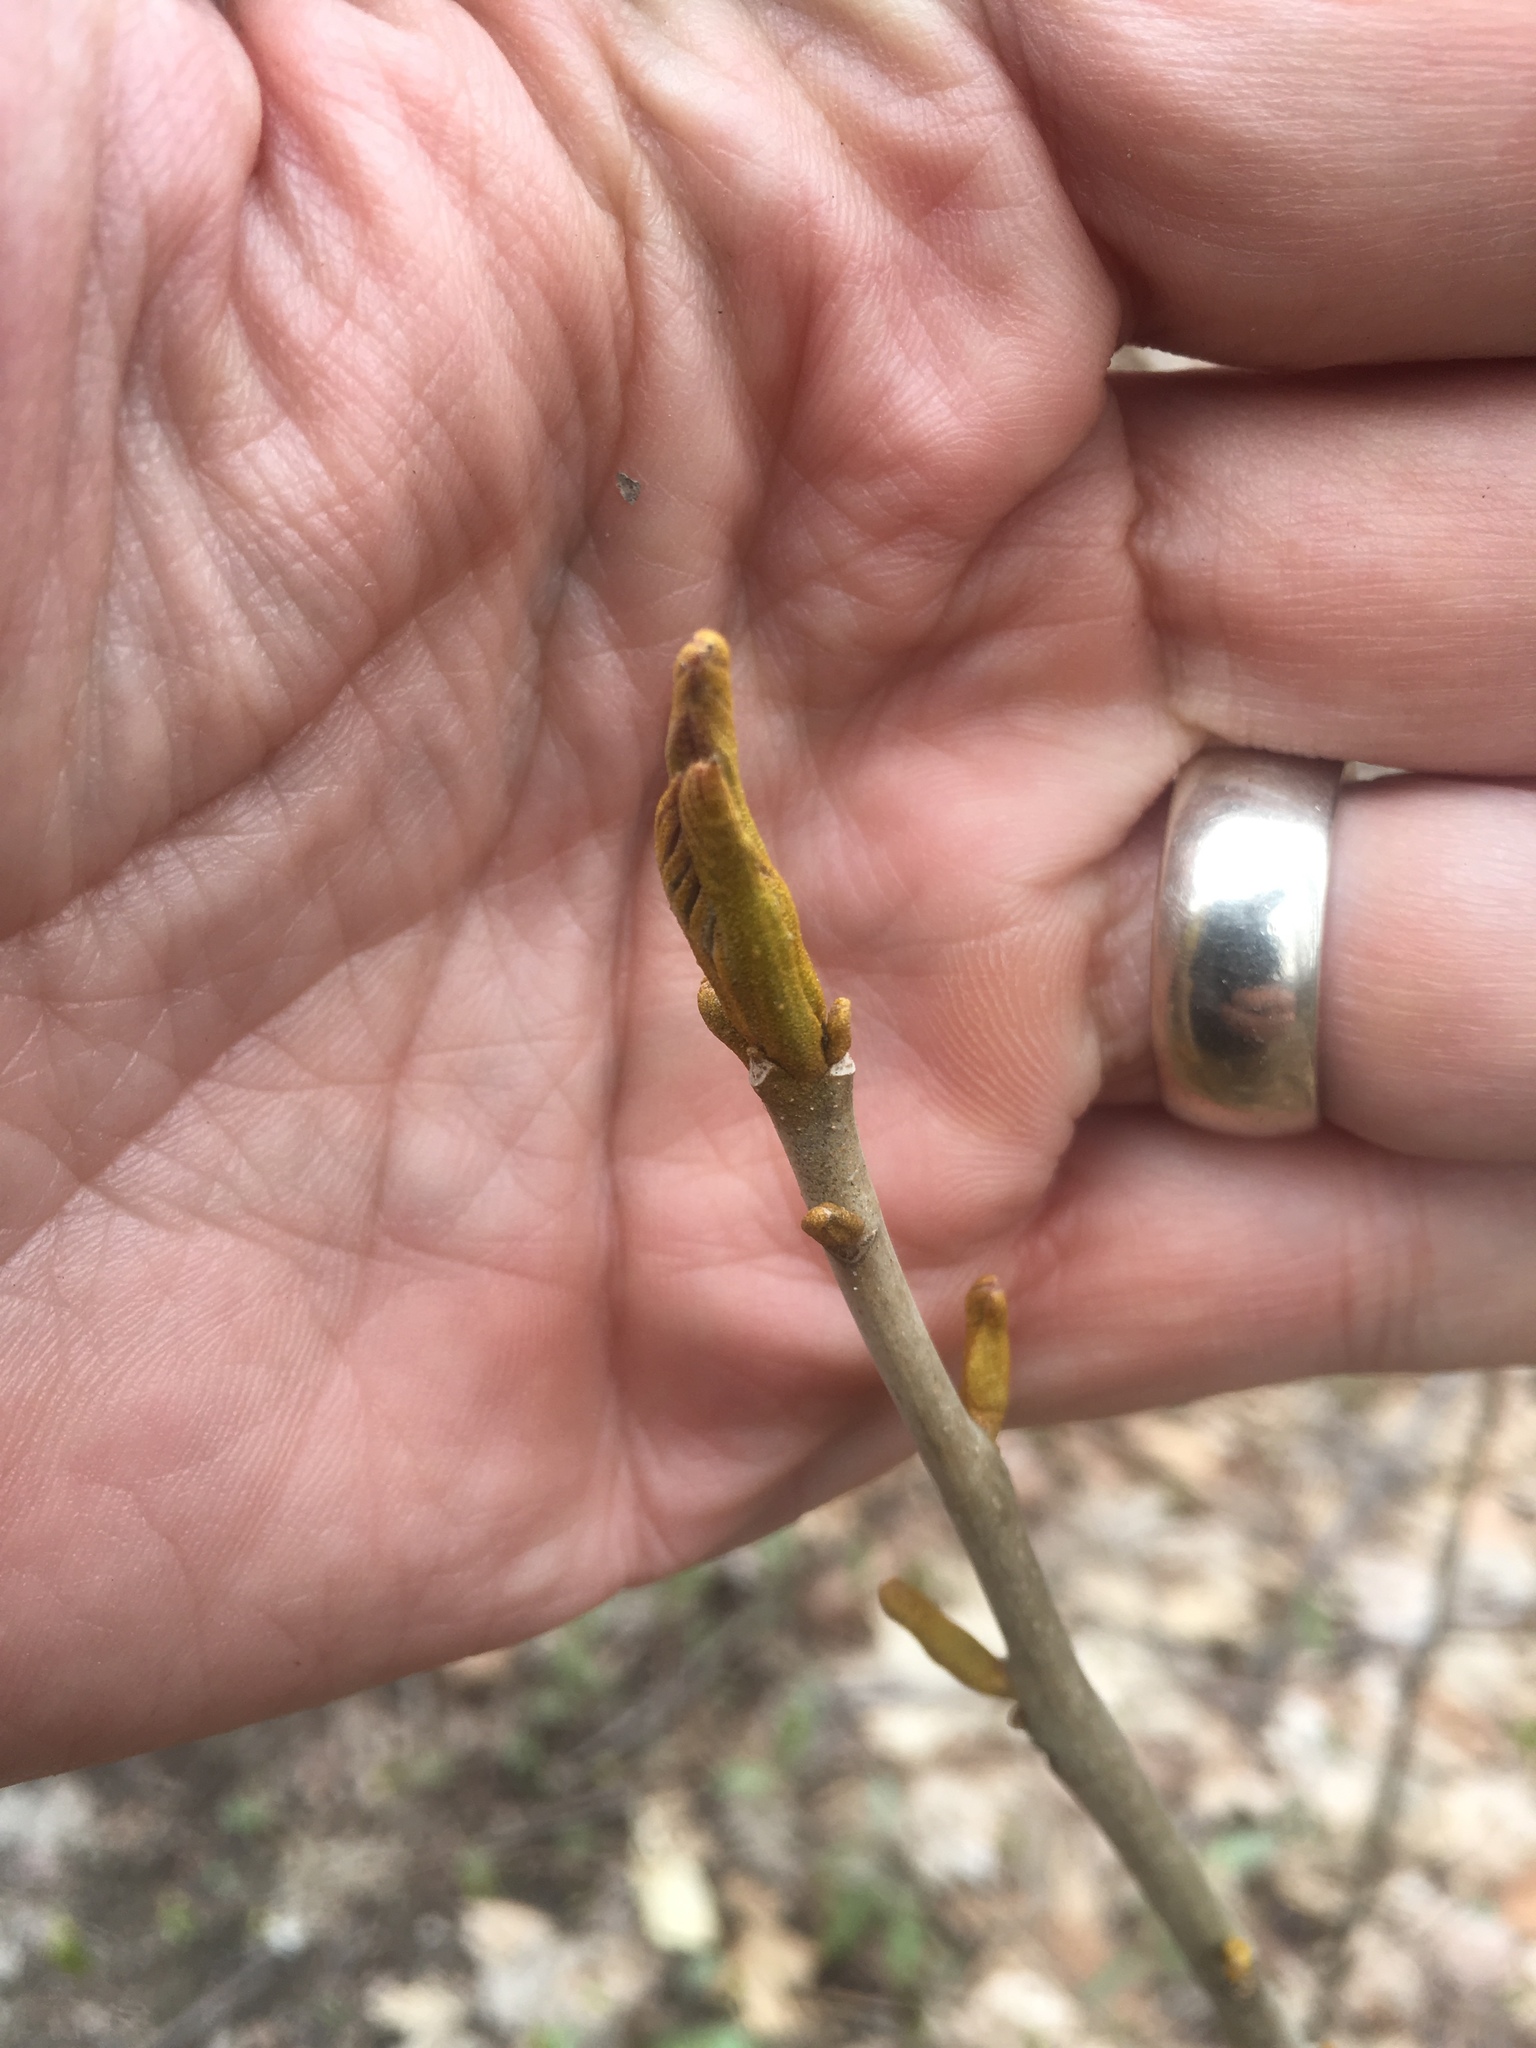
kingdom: Plantae
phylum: Tracheophyta
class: Magnoliopsida
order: Fagales
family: Juglandaceae
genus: Carya
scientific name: Carya cordiformis
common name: Bitternut hickory
